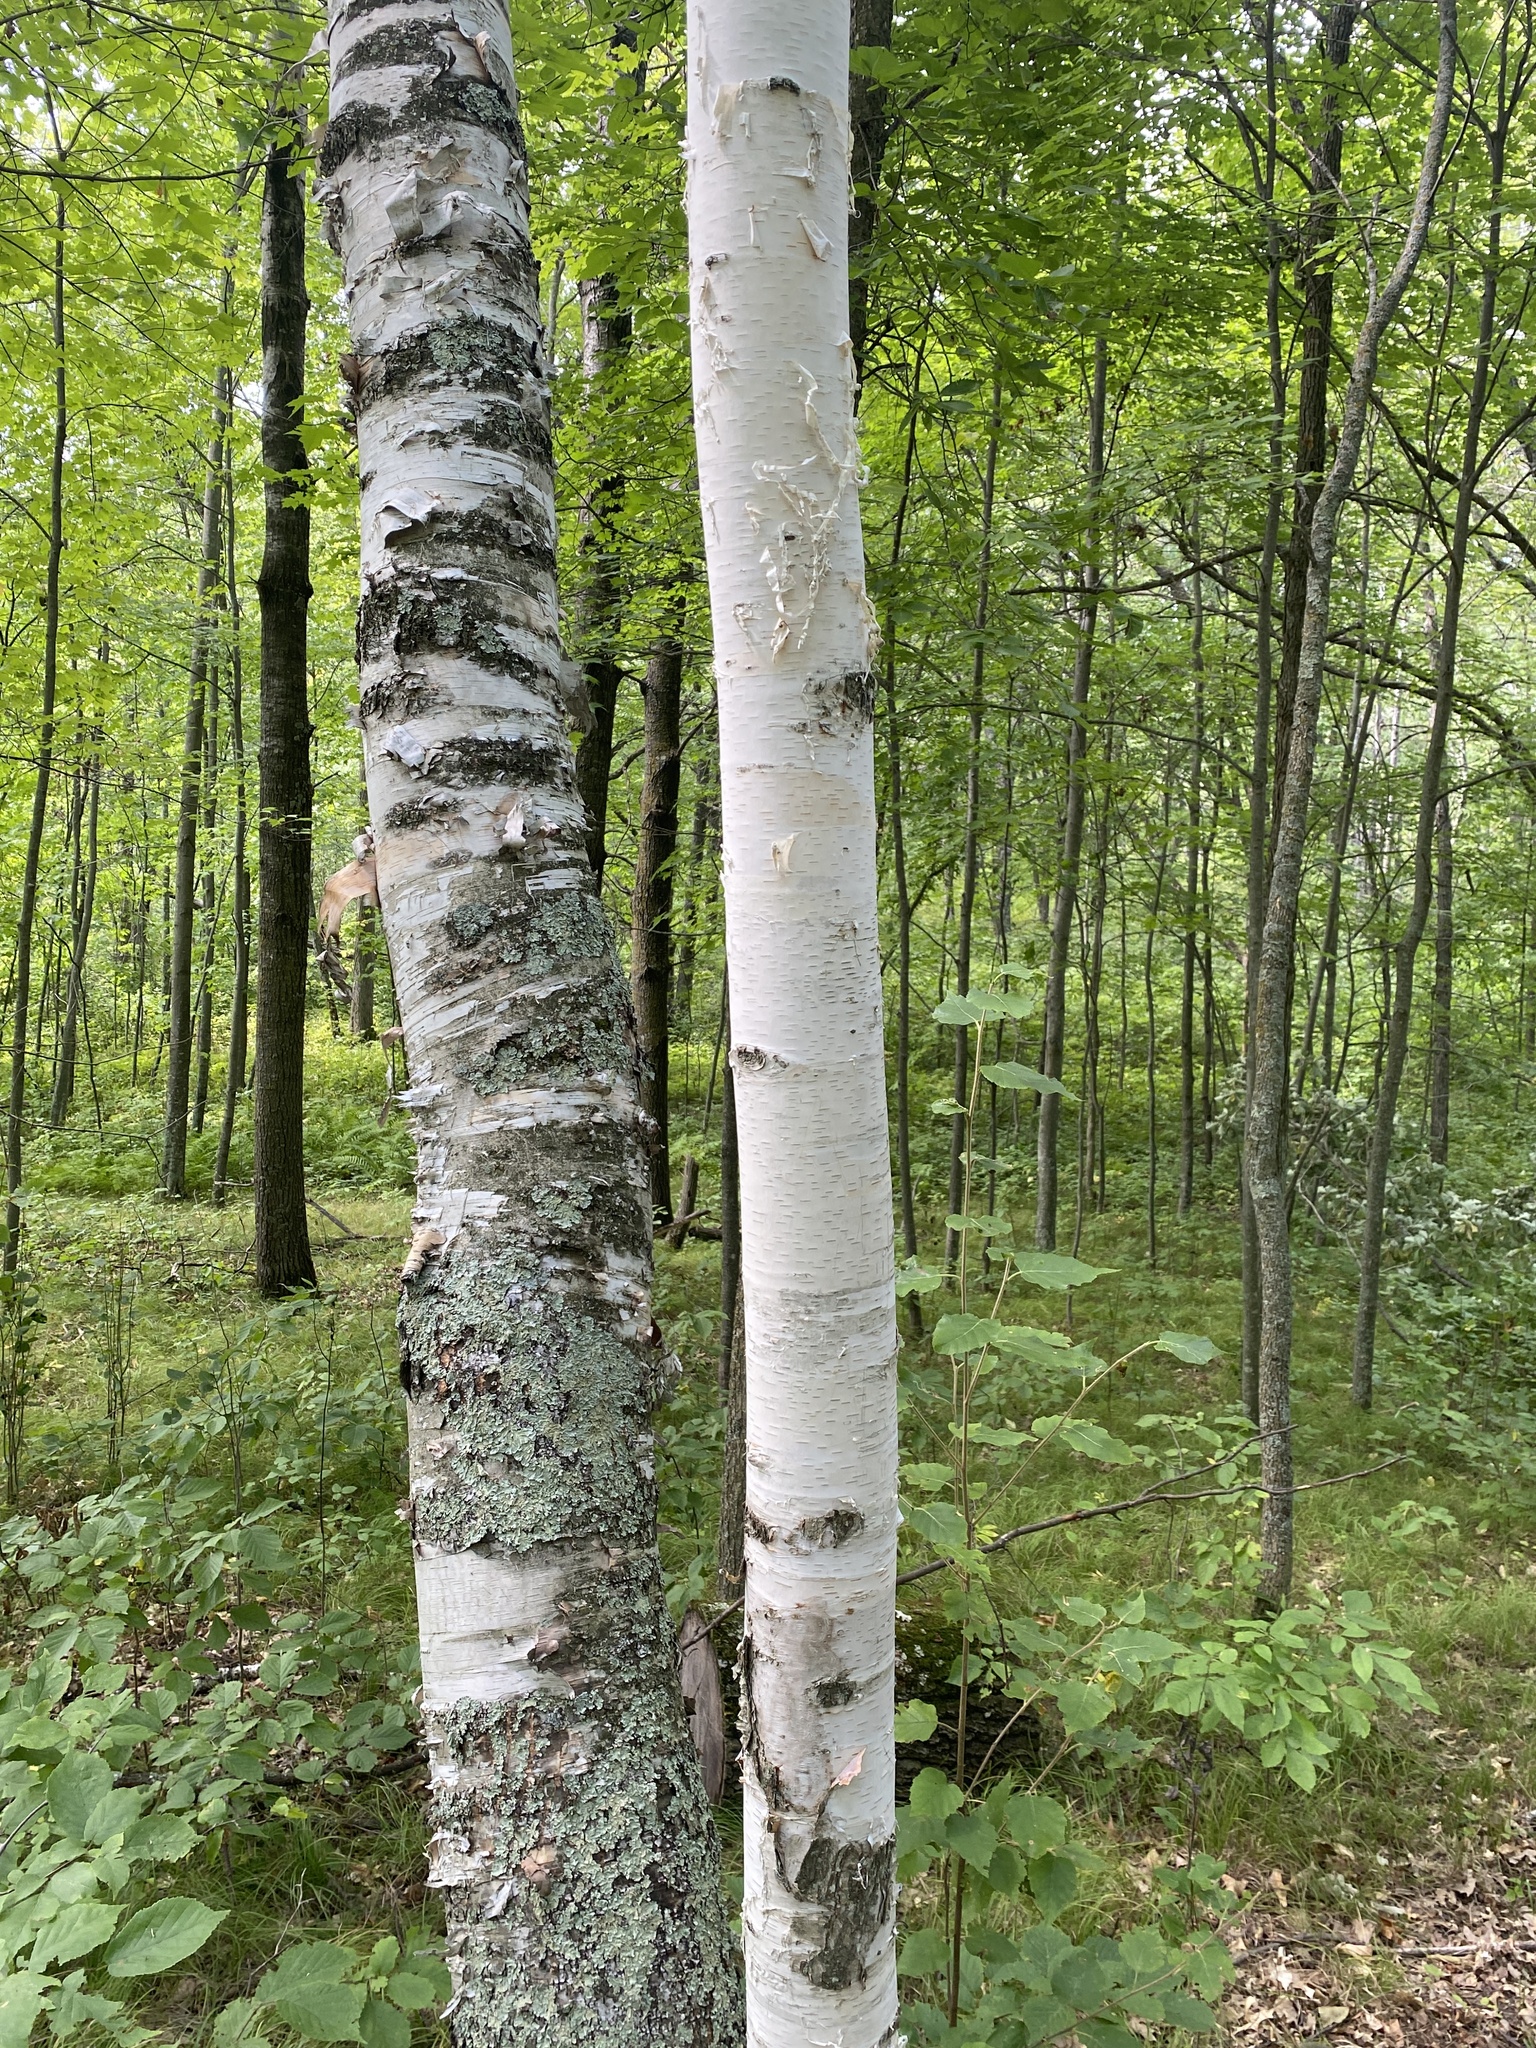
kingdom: Plantae
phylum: Tracheophyta
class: Magnoliopsida
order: Fagales
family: Betulaceae
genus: Betula
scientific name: Betula papyrifera
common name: Paper birch
